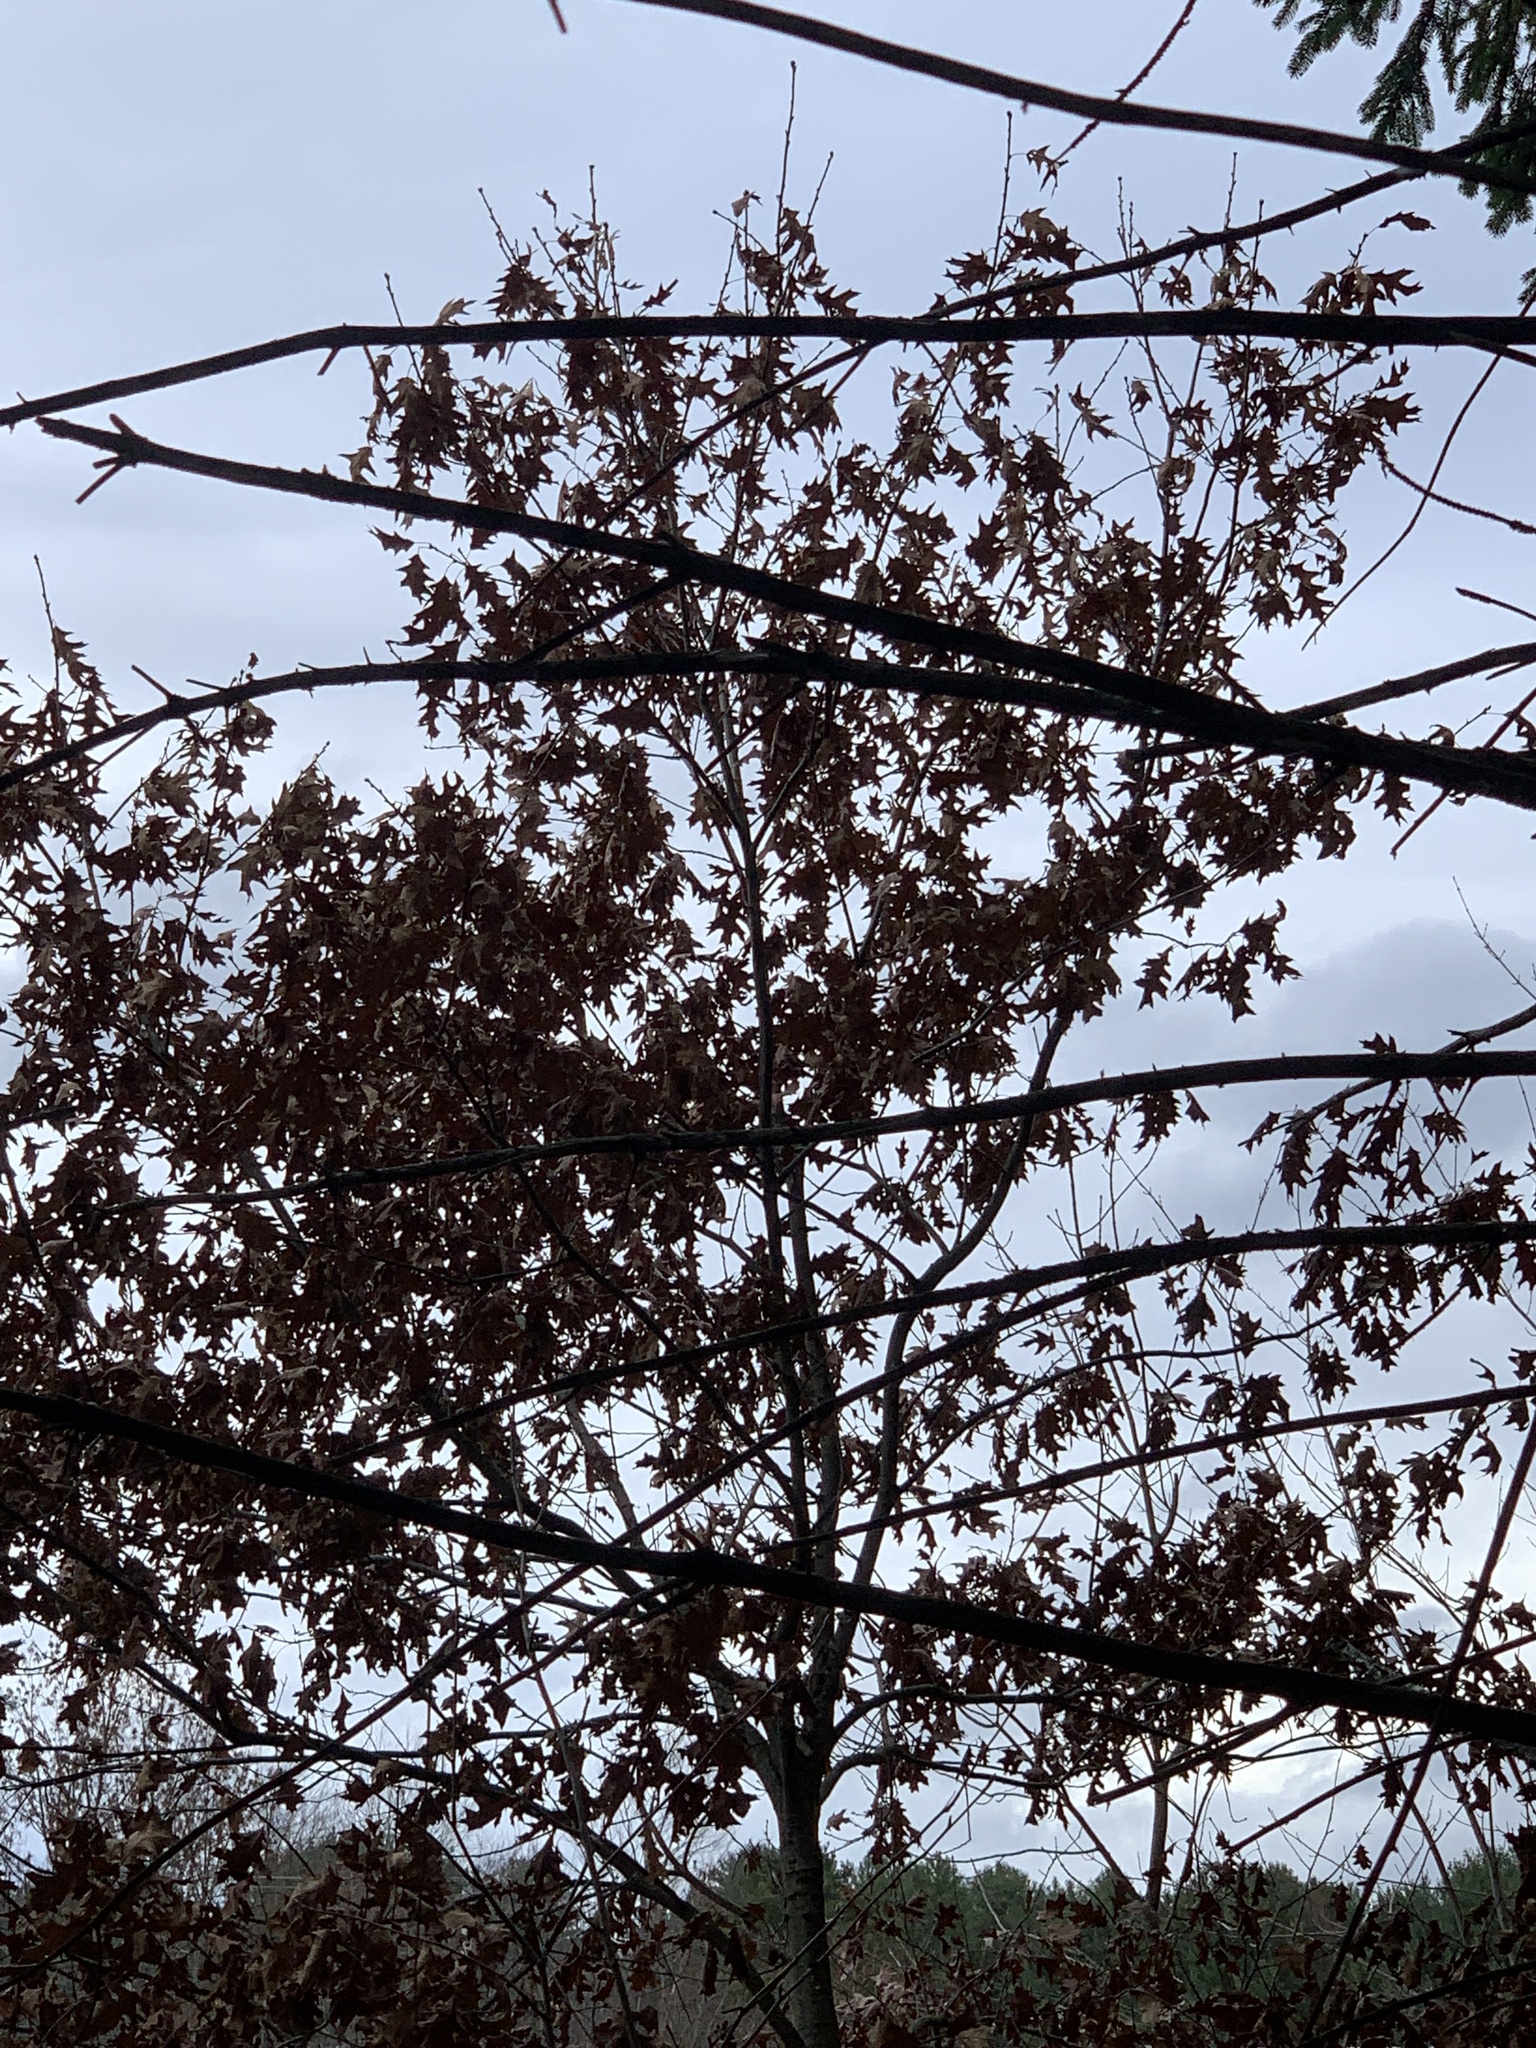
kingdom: Plantae
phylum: Tracheophyta
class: Magnoliopsida
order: Fagales
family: Fagaceae
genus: Quercus
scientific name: Quercus rubra
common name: Red oak
